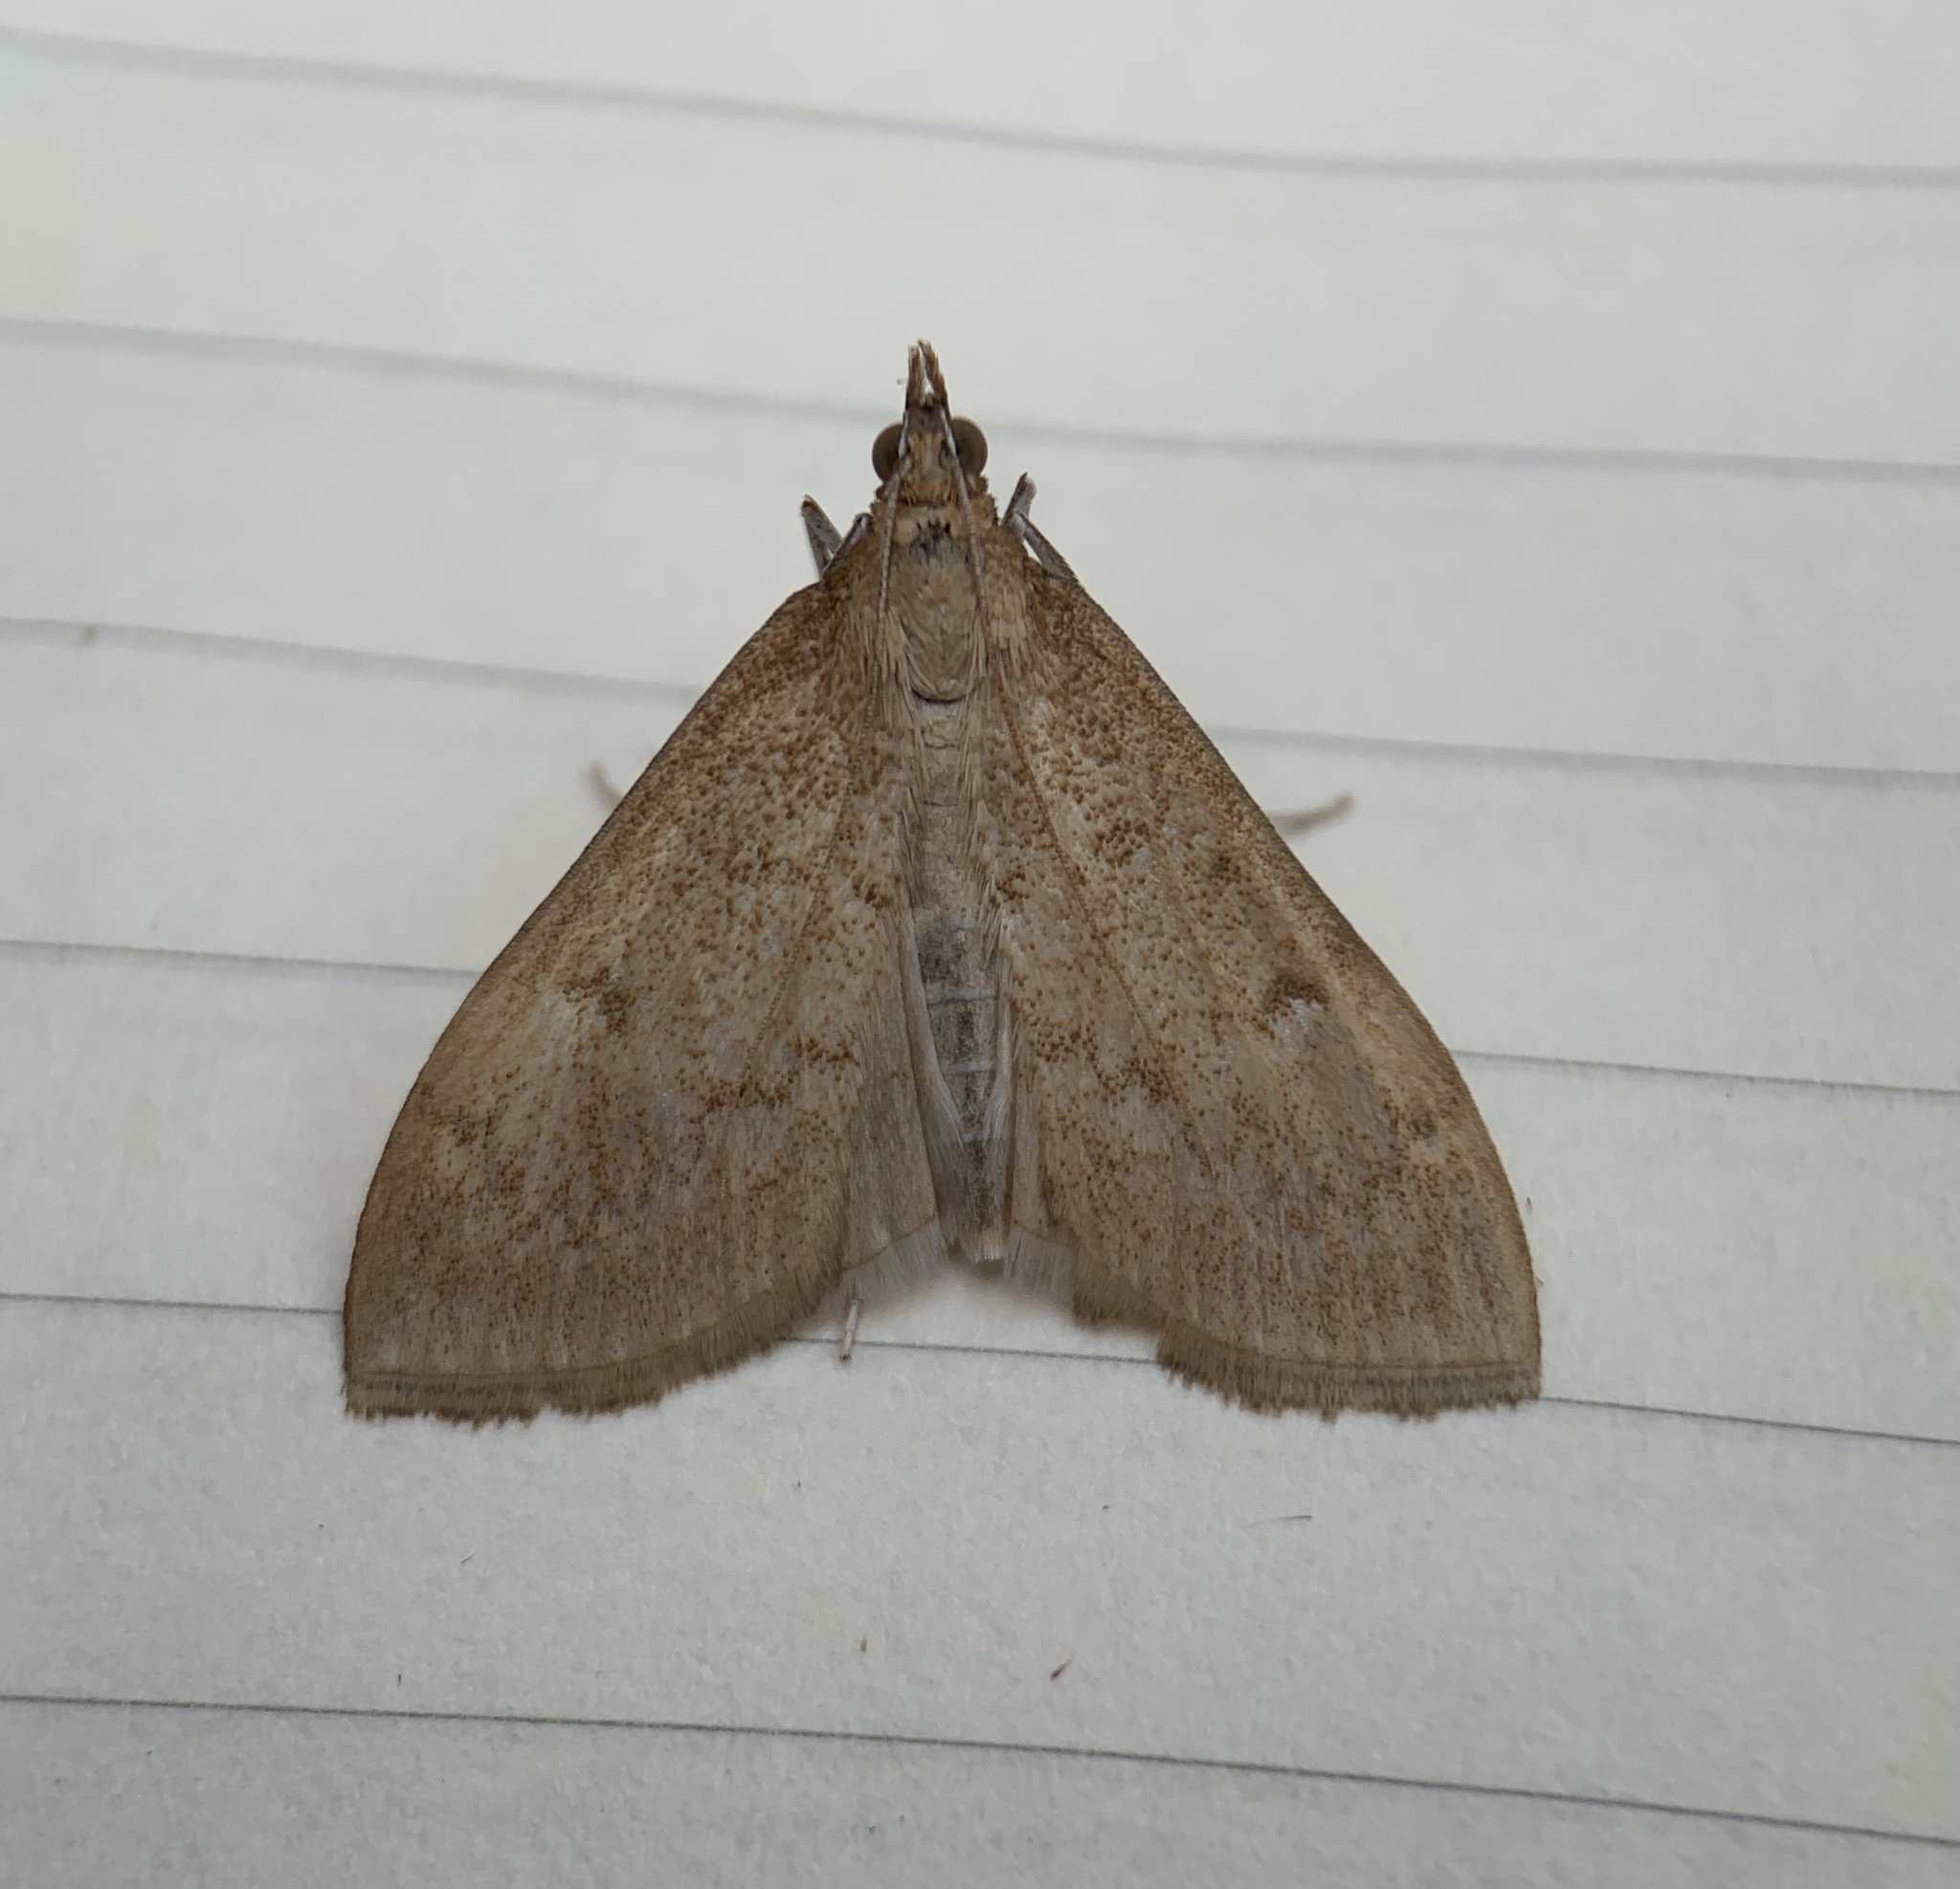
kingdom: Animalia
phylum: Arthropoda
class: Insecta
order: Lepidoptera
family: Crambidae
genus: Saucrobotys
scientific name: Saucrobotys futilalis
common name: Dogbane saucrobotys moth
